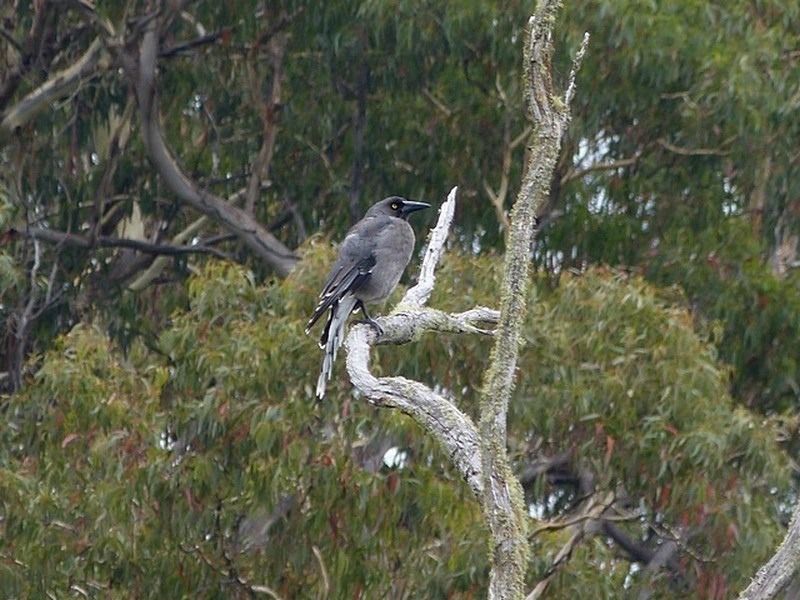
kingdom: Animalia
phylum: Chordata
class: Aves
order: Passeriformes
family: Cracticidae
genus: Strepera
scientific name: Strepera versicolor
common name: Grey currawong
